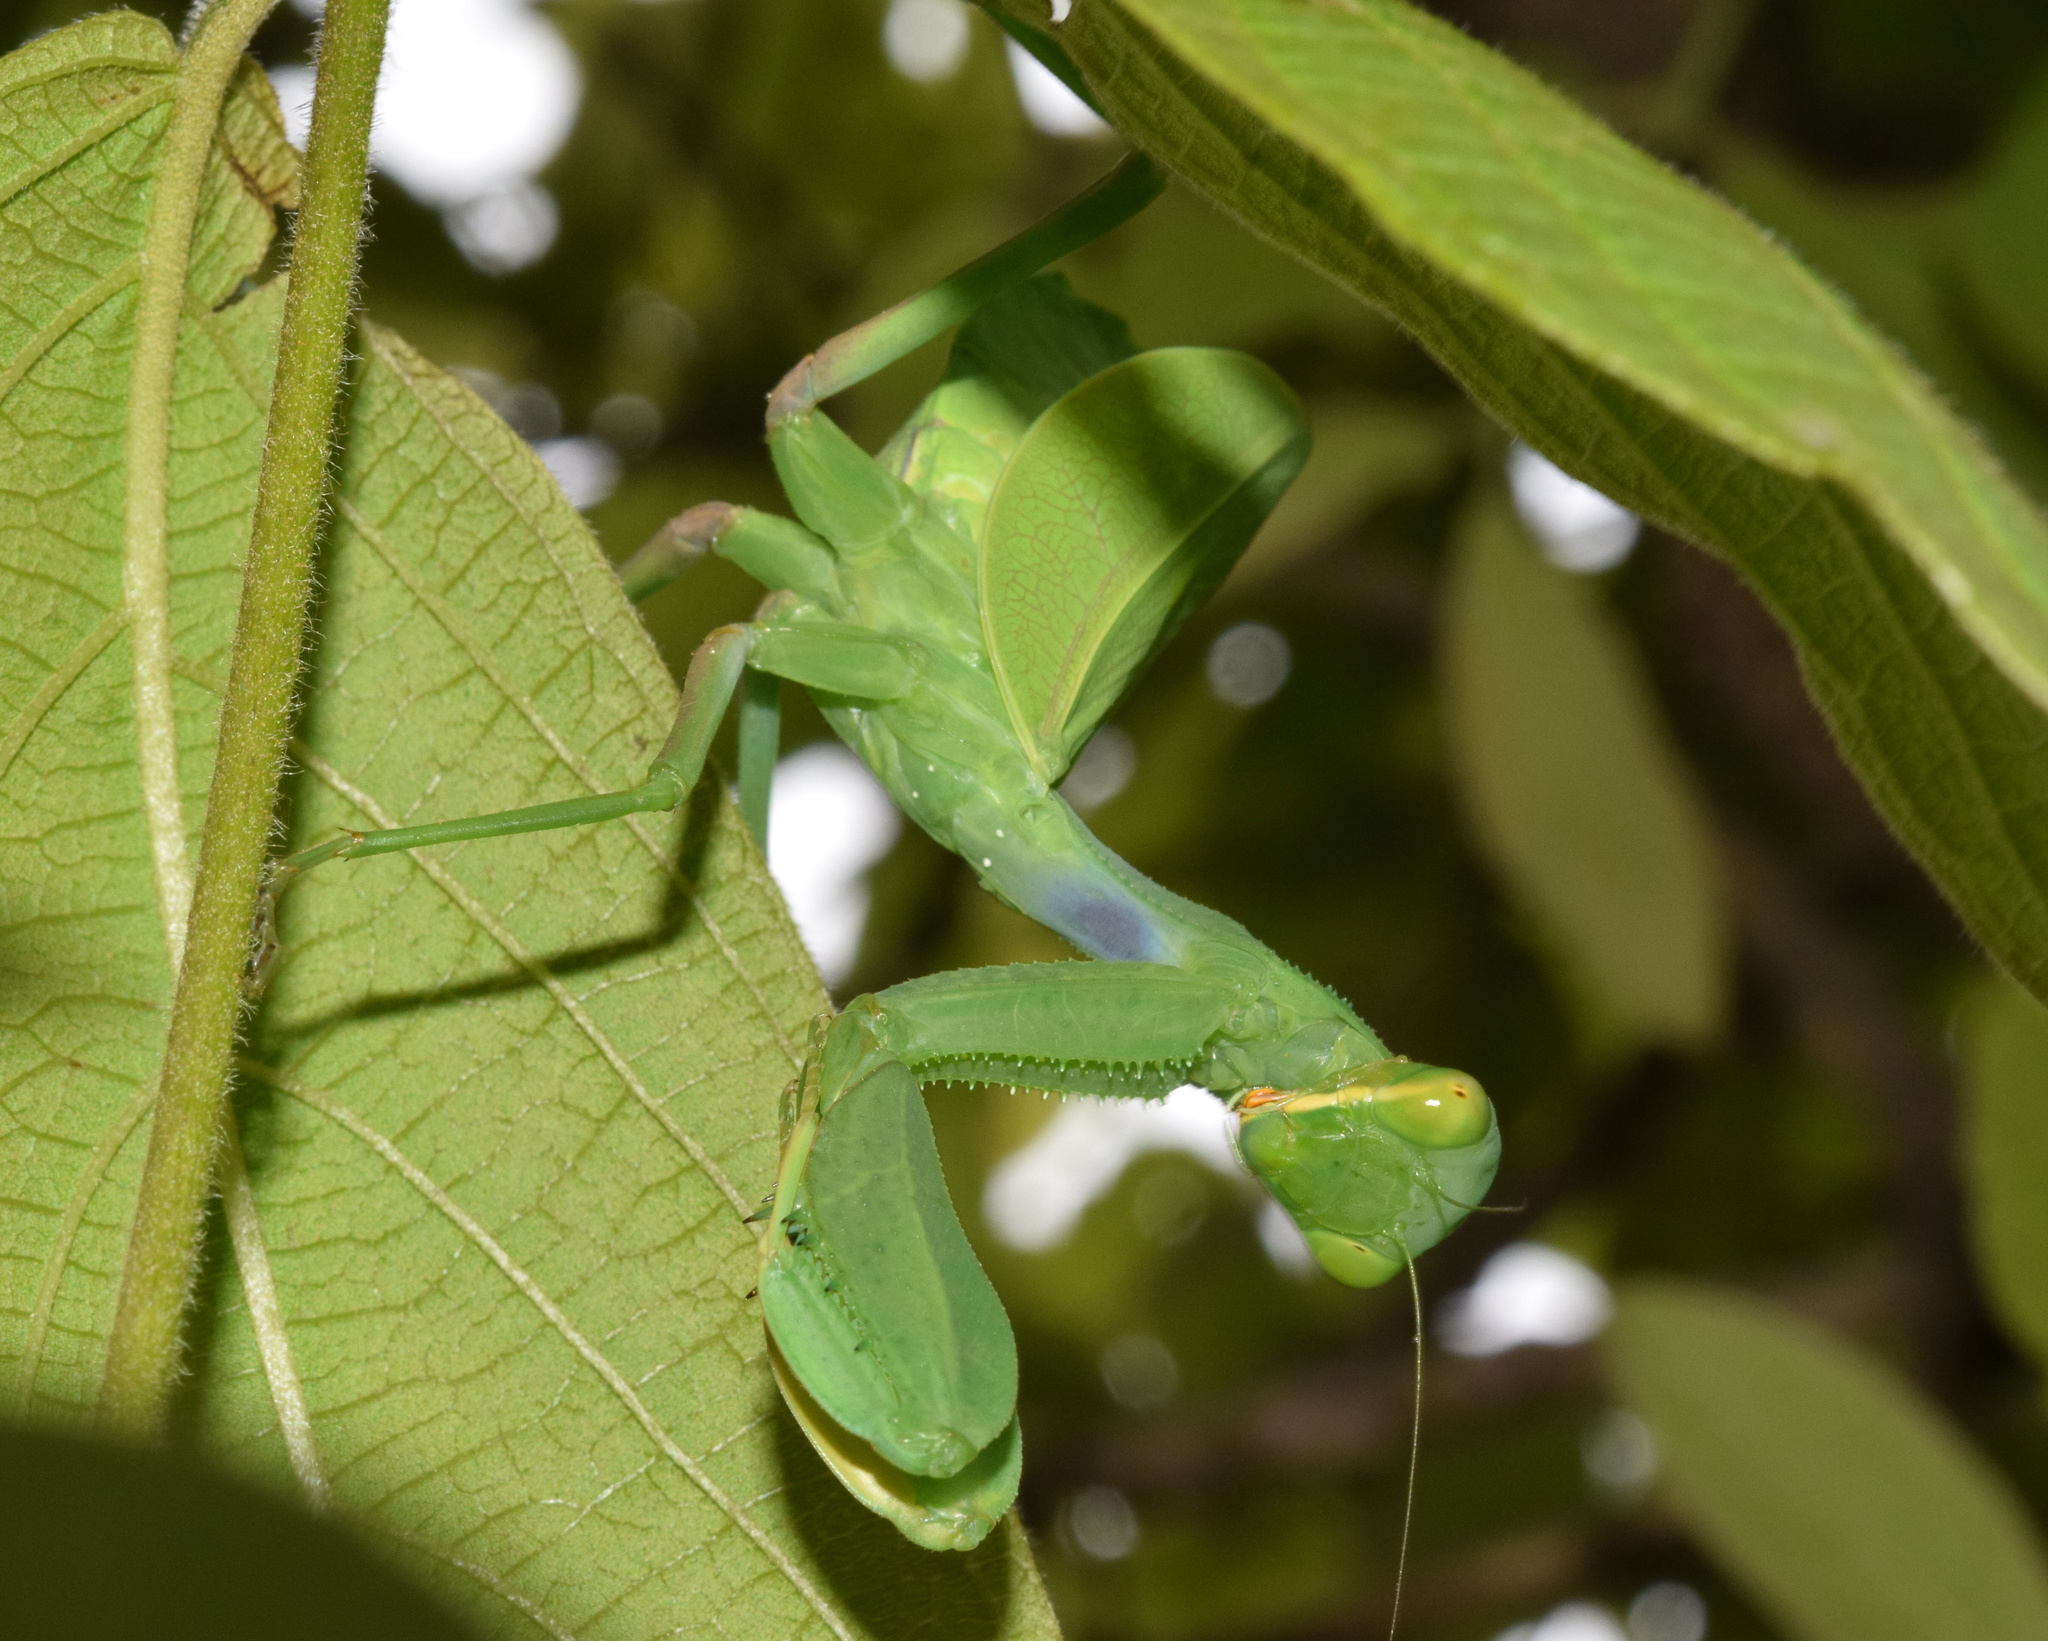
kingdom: Animalia
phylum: Arthropoda
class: Insecta
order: Mantodea
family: Miomantidae
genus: Cilnia
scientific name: Cilnia humeralis
